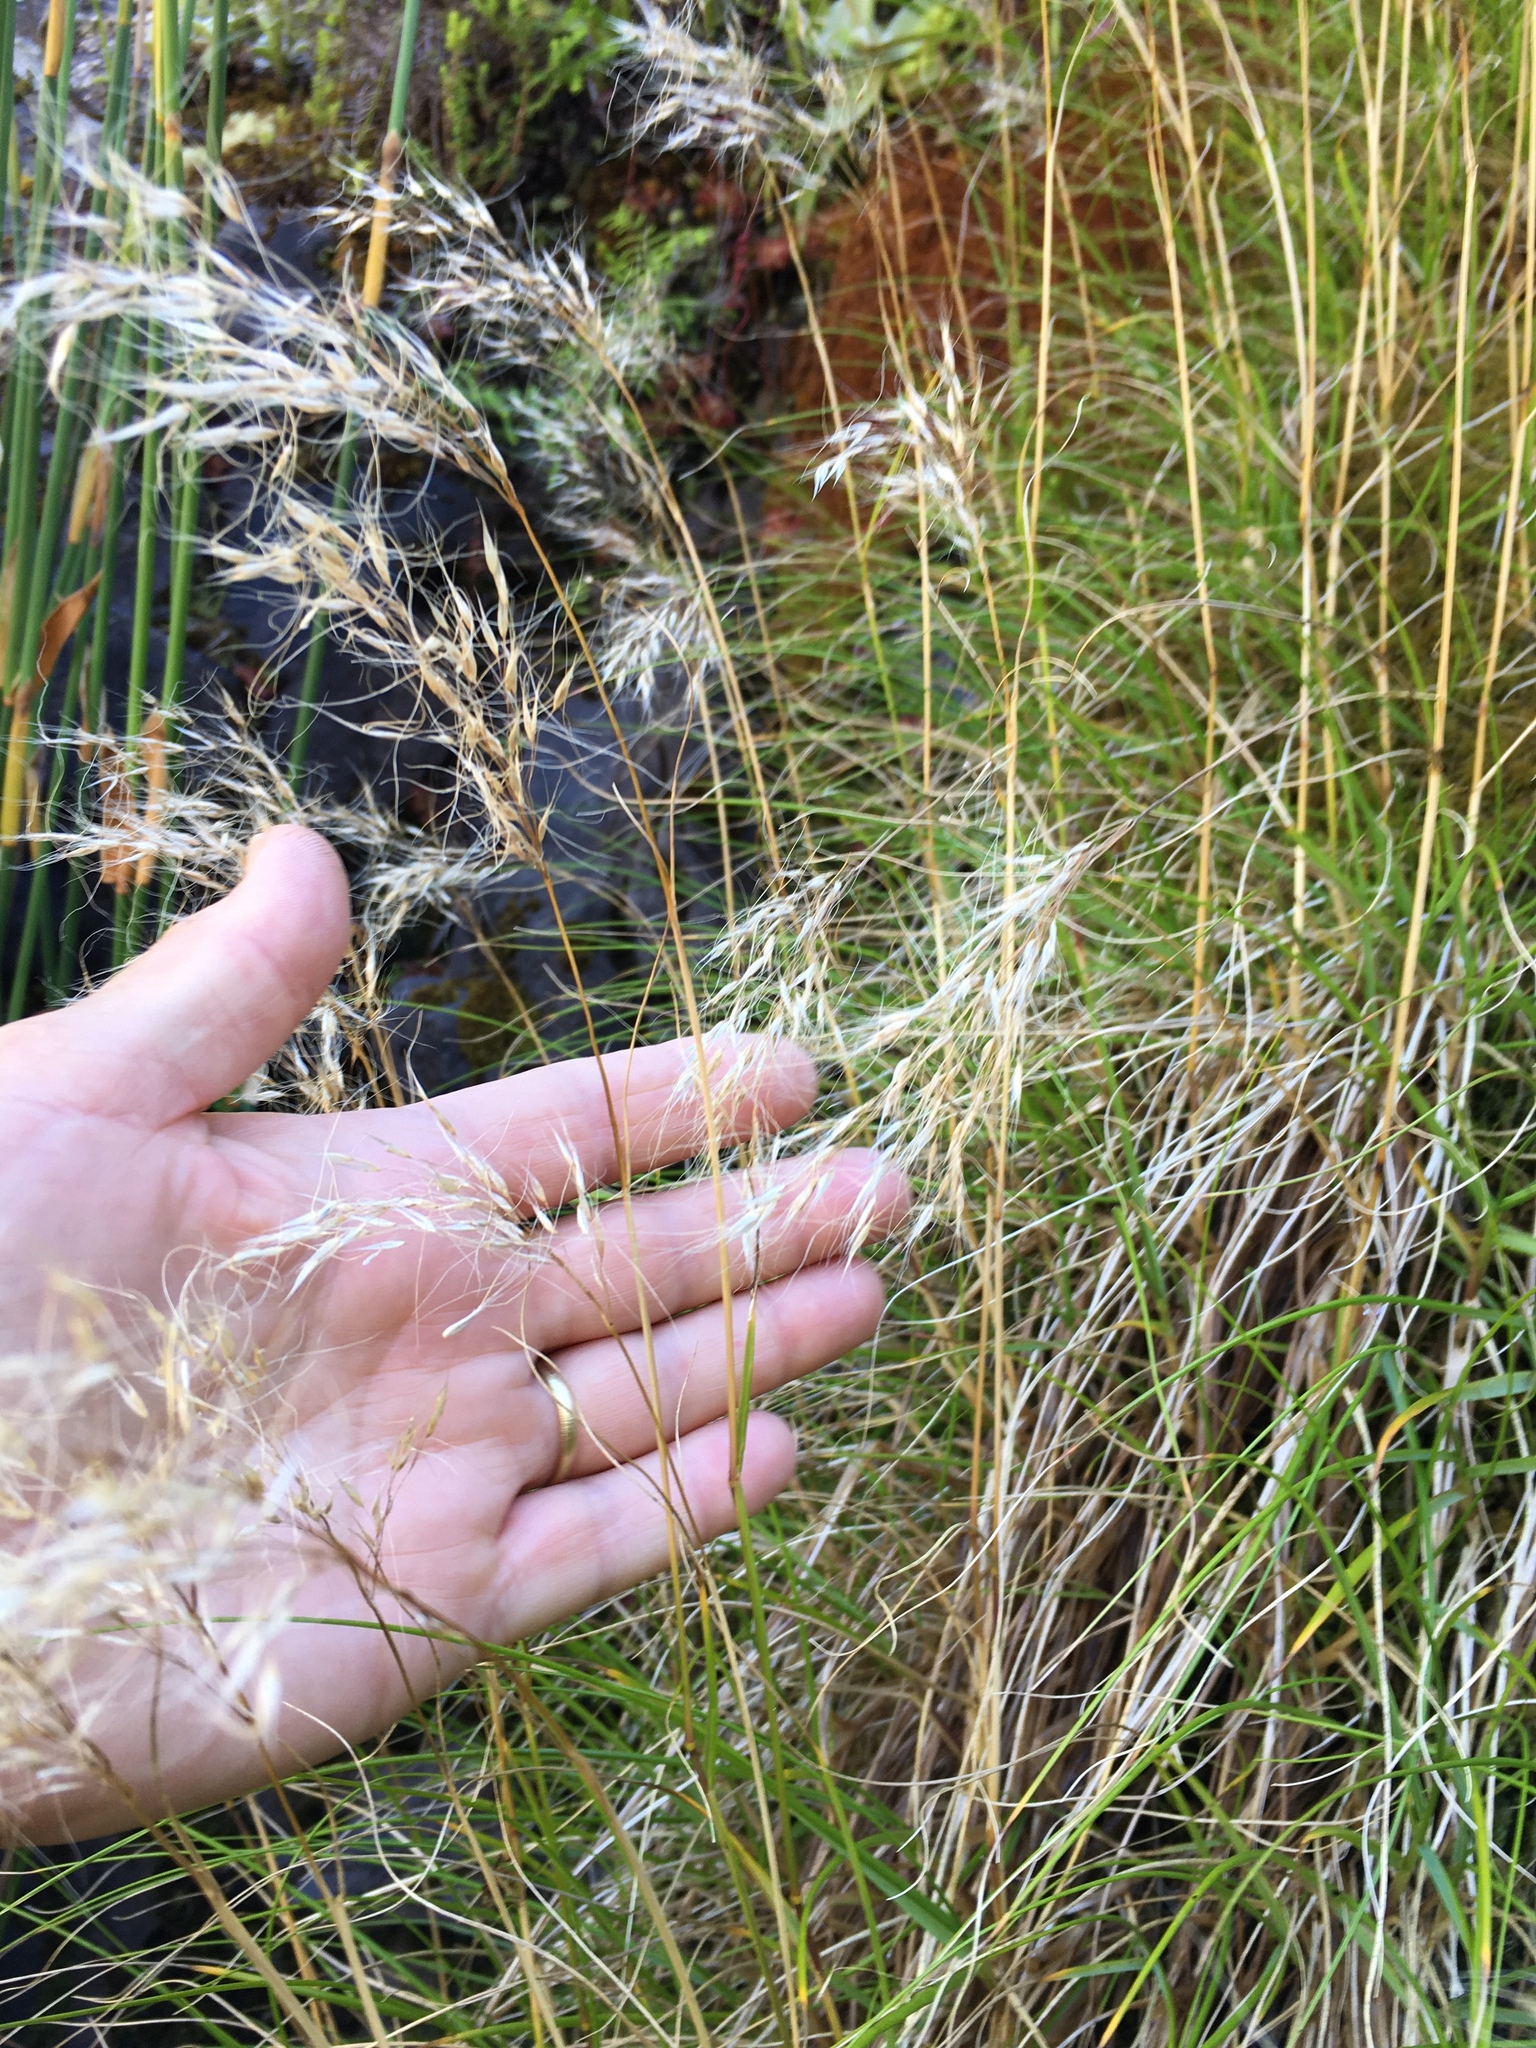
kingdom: Plantae
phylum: Tracheophyta
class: Liliopsida
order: Poales
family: Poaceae
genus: Pentameris
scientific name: Pentameris capensis
